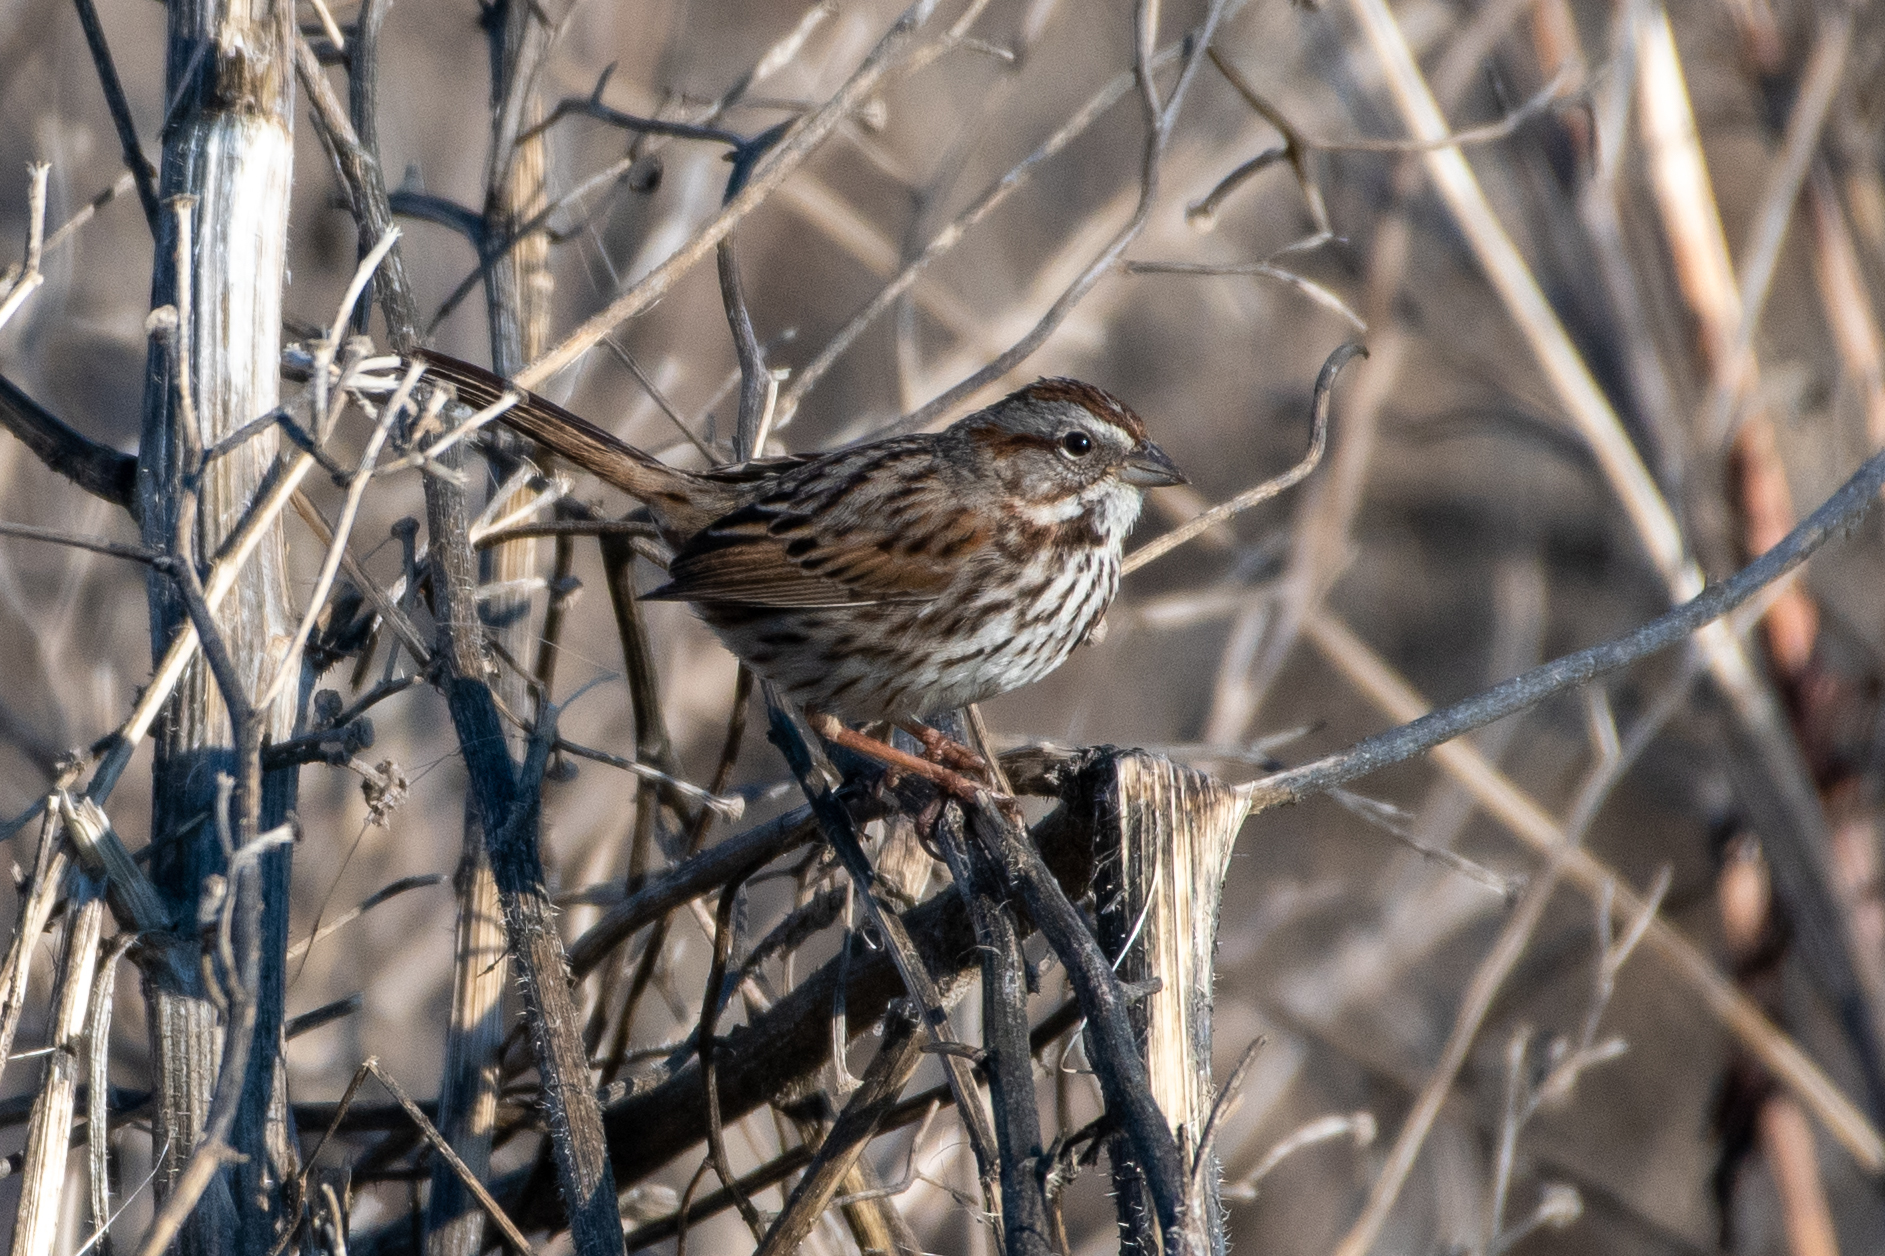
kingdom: Animalia
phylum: Chordata
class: Aves
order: Passeriformes
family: Passerellidae
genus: Melospiza
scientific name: Melospiza melodia
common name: Song sparrow
